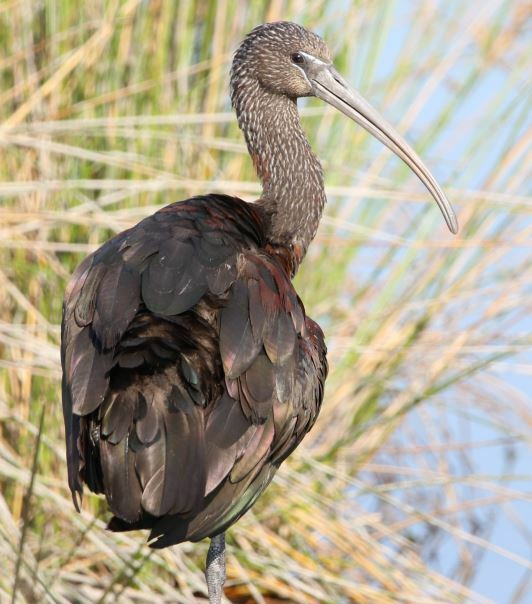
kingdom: Animalia
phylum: Chordata
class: Aves
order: Pelecaniformes
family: Threskiornithidae
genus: Plegadis
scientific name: Plegadis falcinellus
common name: Glossy ibis
